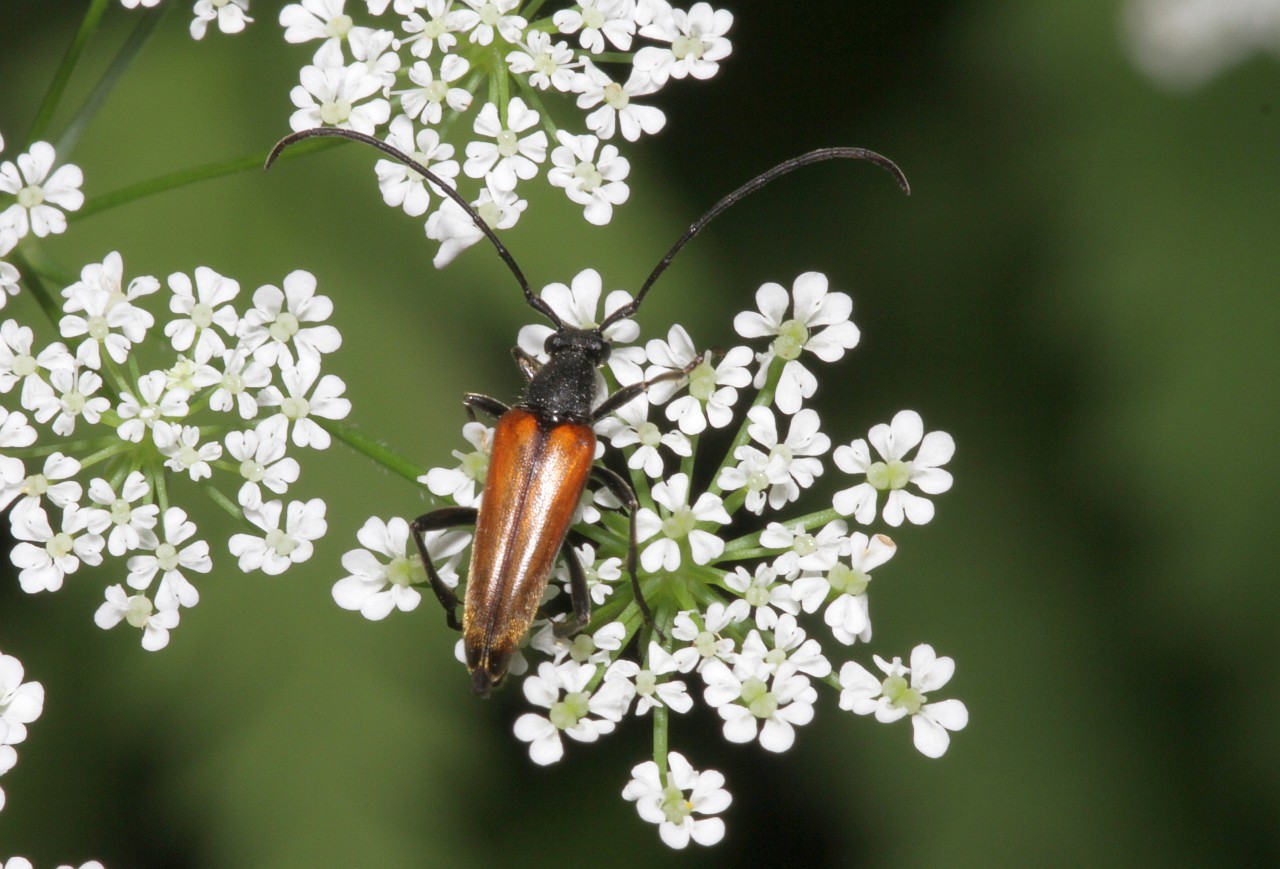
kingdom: Animalia
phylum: Arthropoda
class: Insecta
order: Coleoptera
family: Cerambycidae
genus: Stenurella
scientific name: Stenurella melanura
